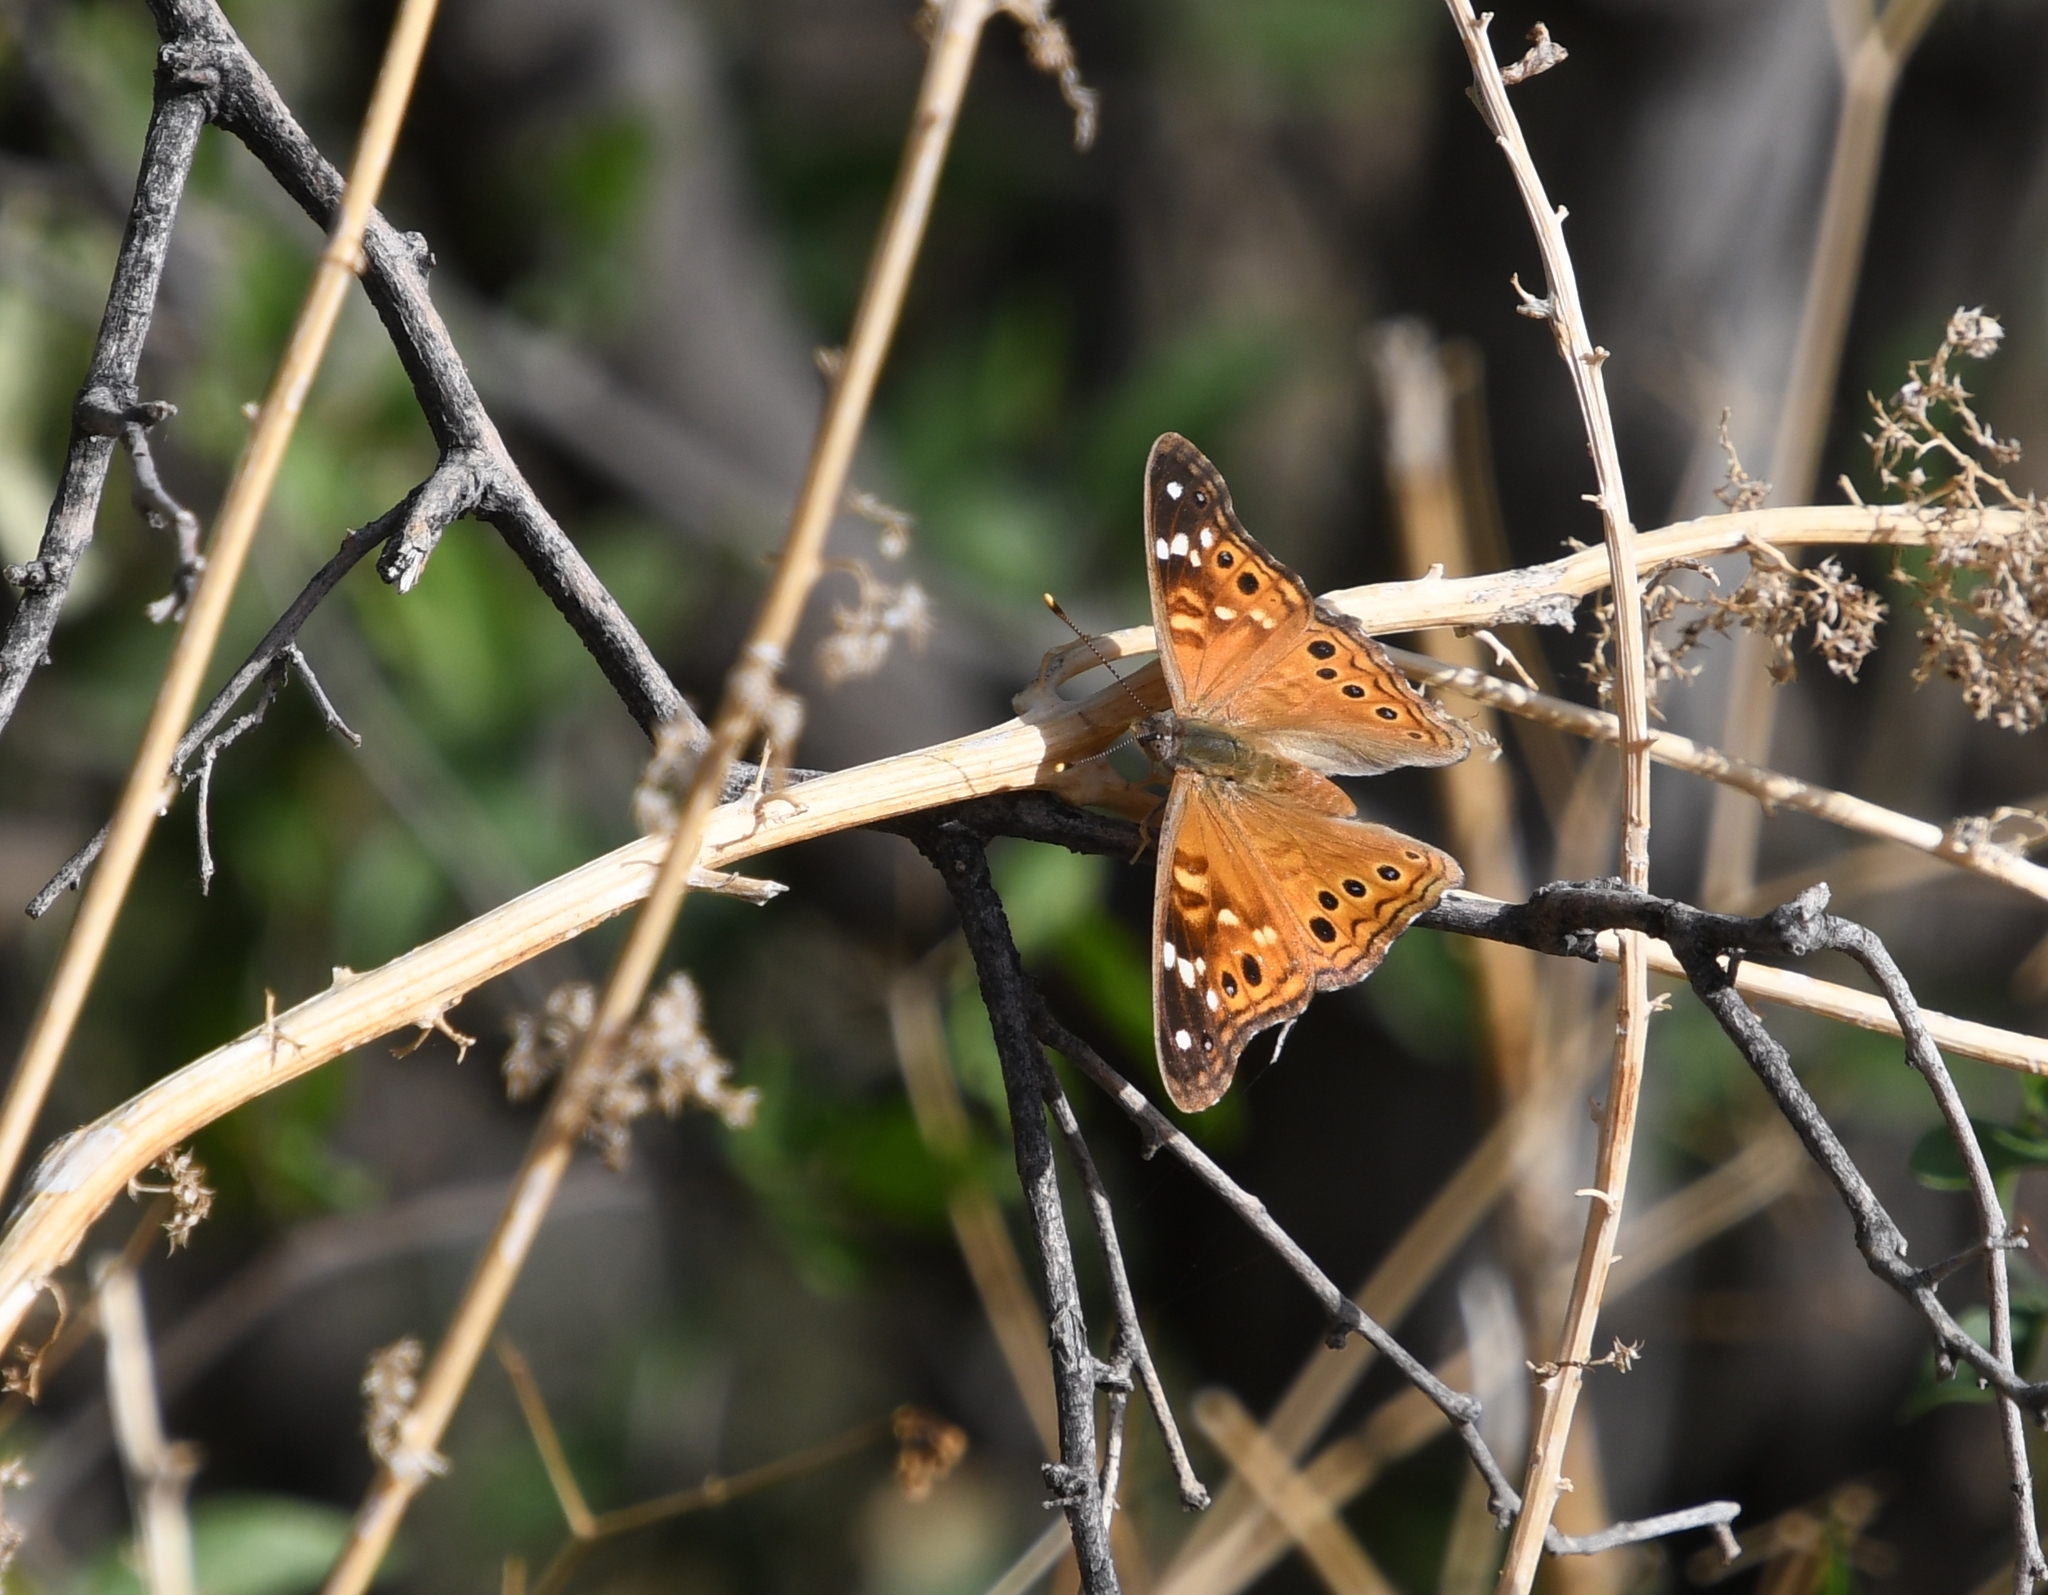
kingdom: Animalia
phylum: Arthropoda
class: Insecta
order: Lepidoptera
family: Nymphalidae
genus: Asterocampa
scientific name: Asterocampa leilia
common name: Empress leilia
